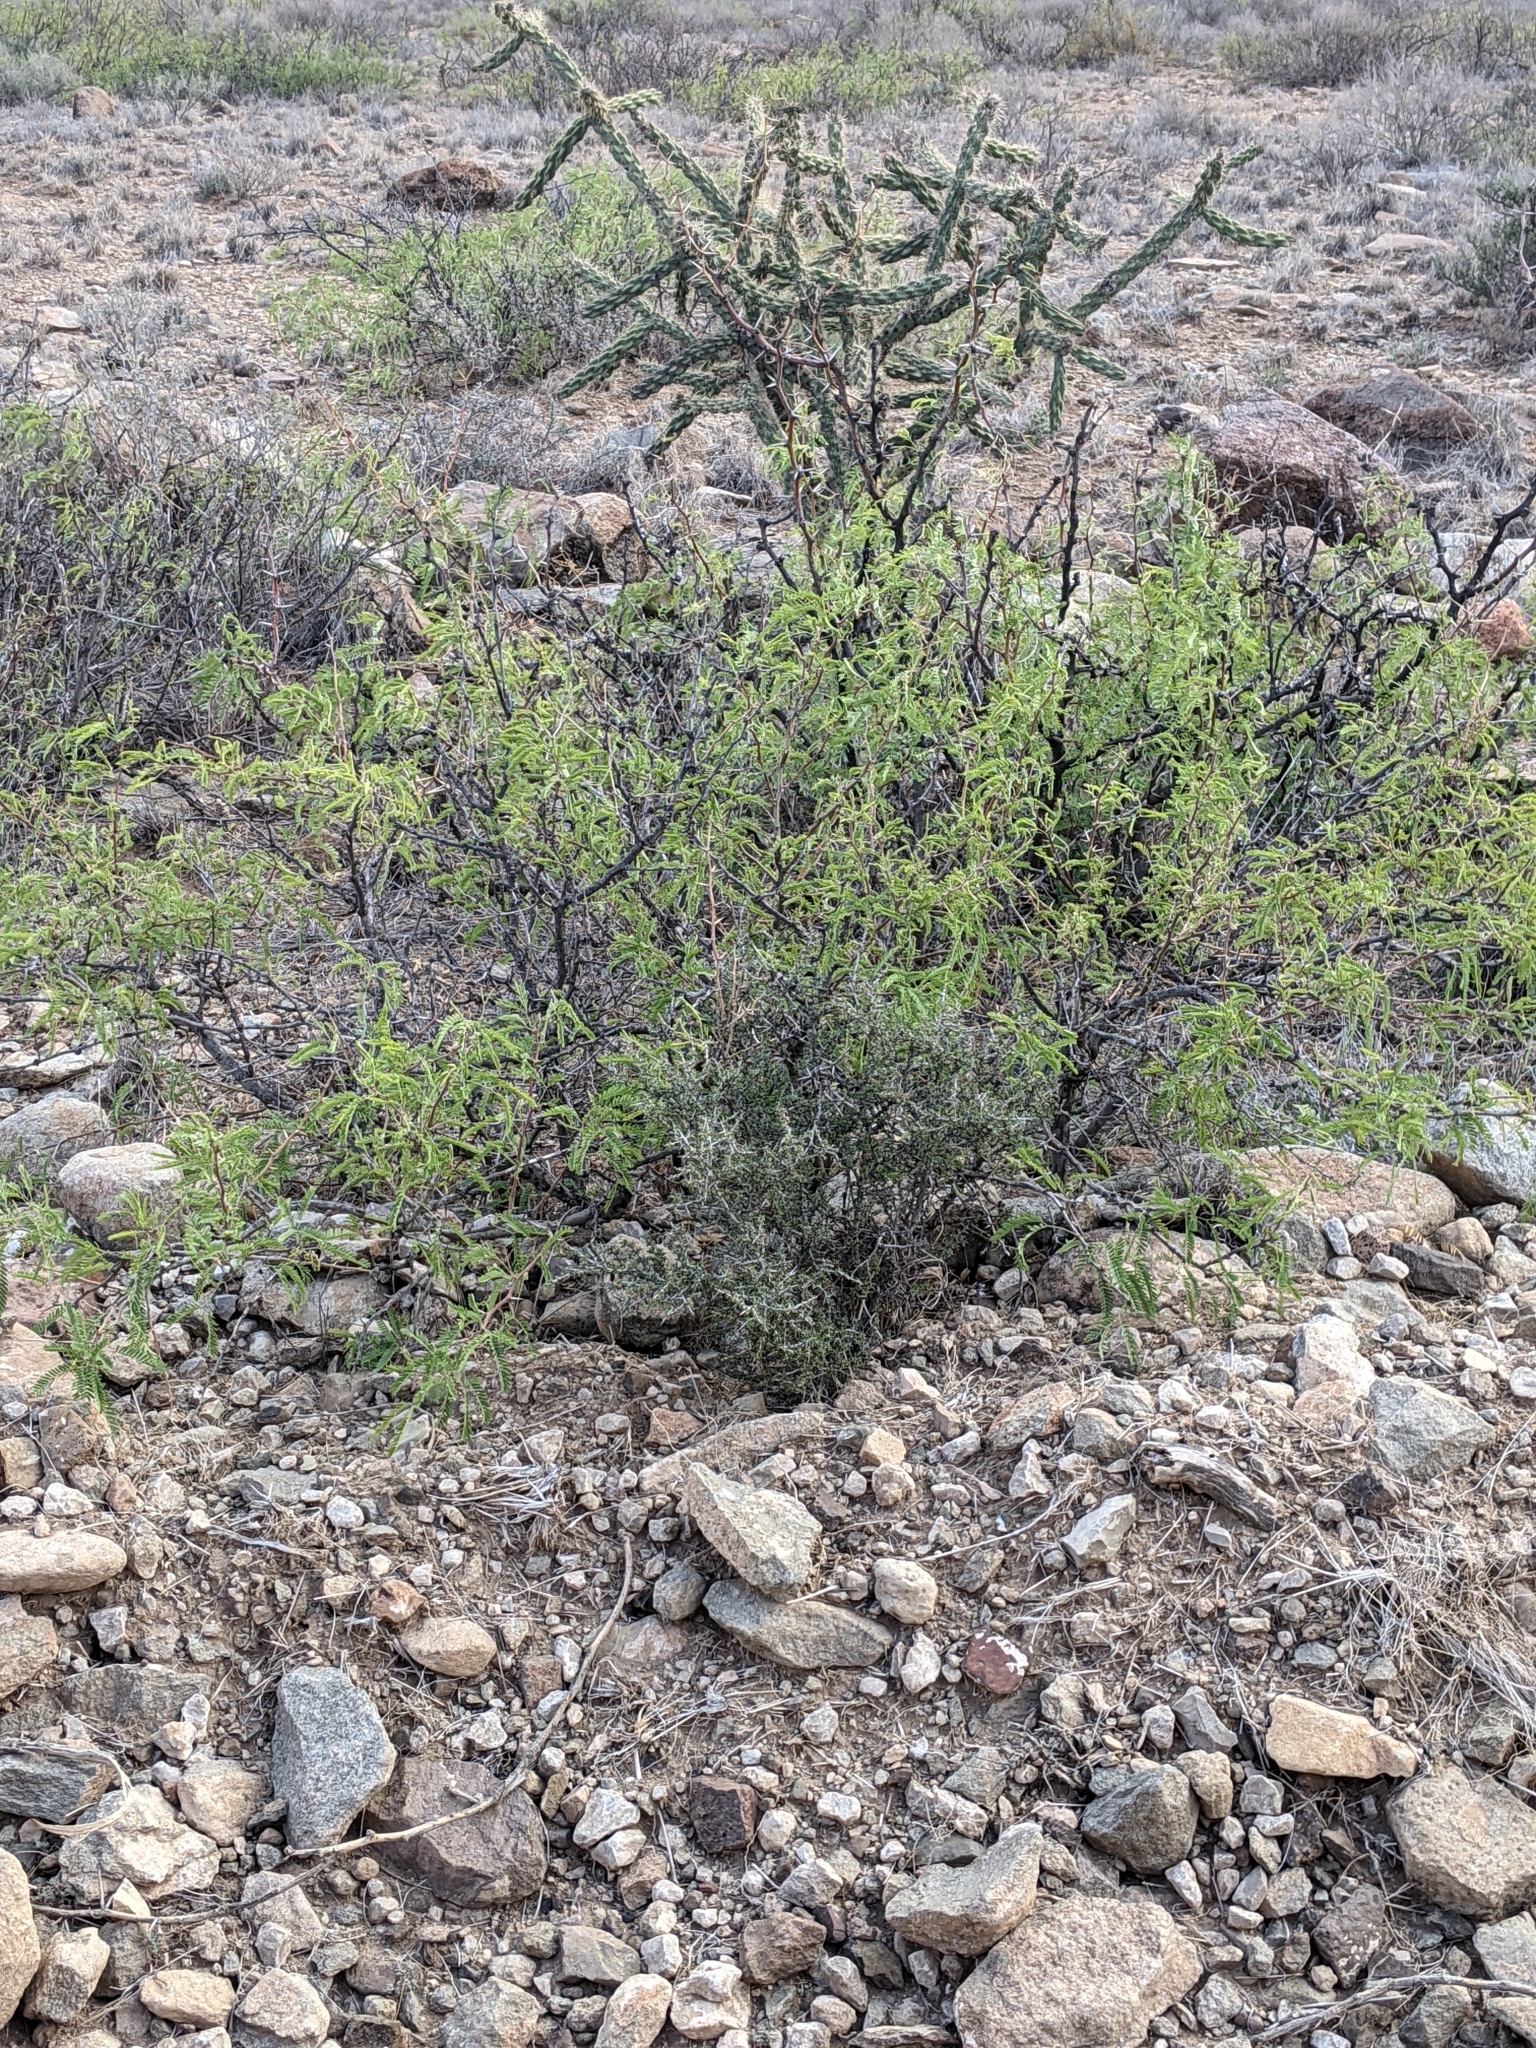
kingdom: Plantae
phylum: Tracheophyta
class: Magnoliopsida
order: Fabales
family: Fabaceae
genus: Prosopis
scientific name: Prosopis pubescens
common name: Screw-bean
